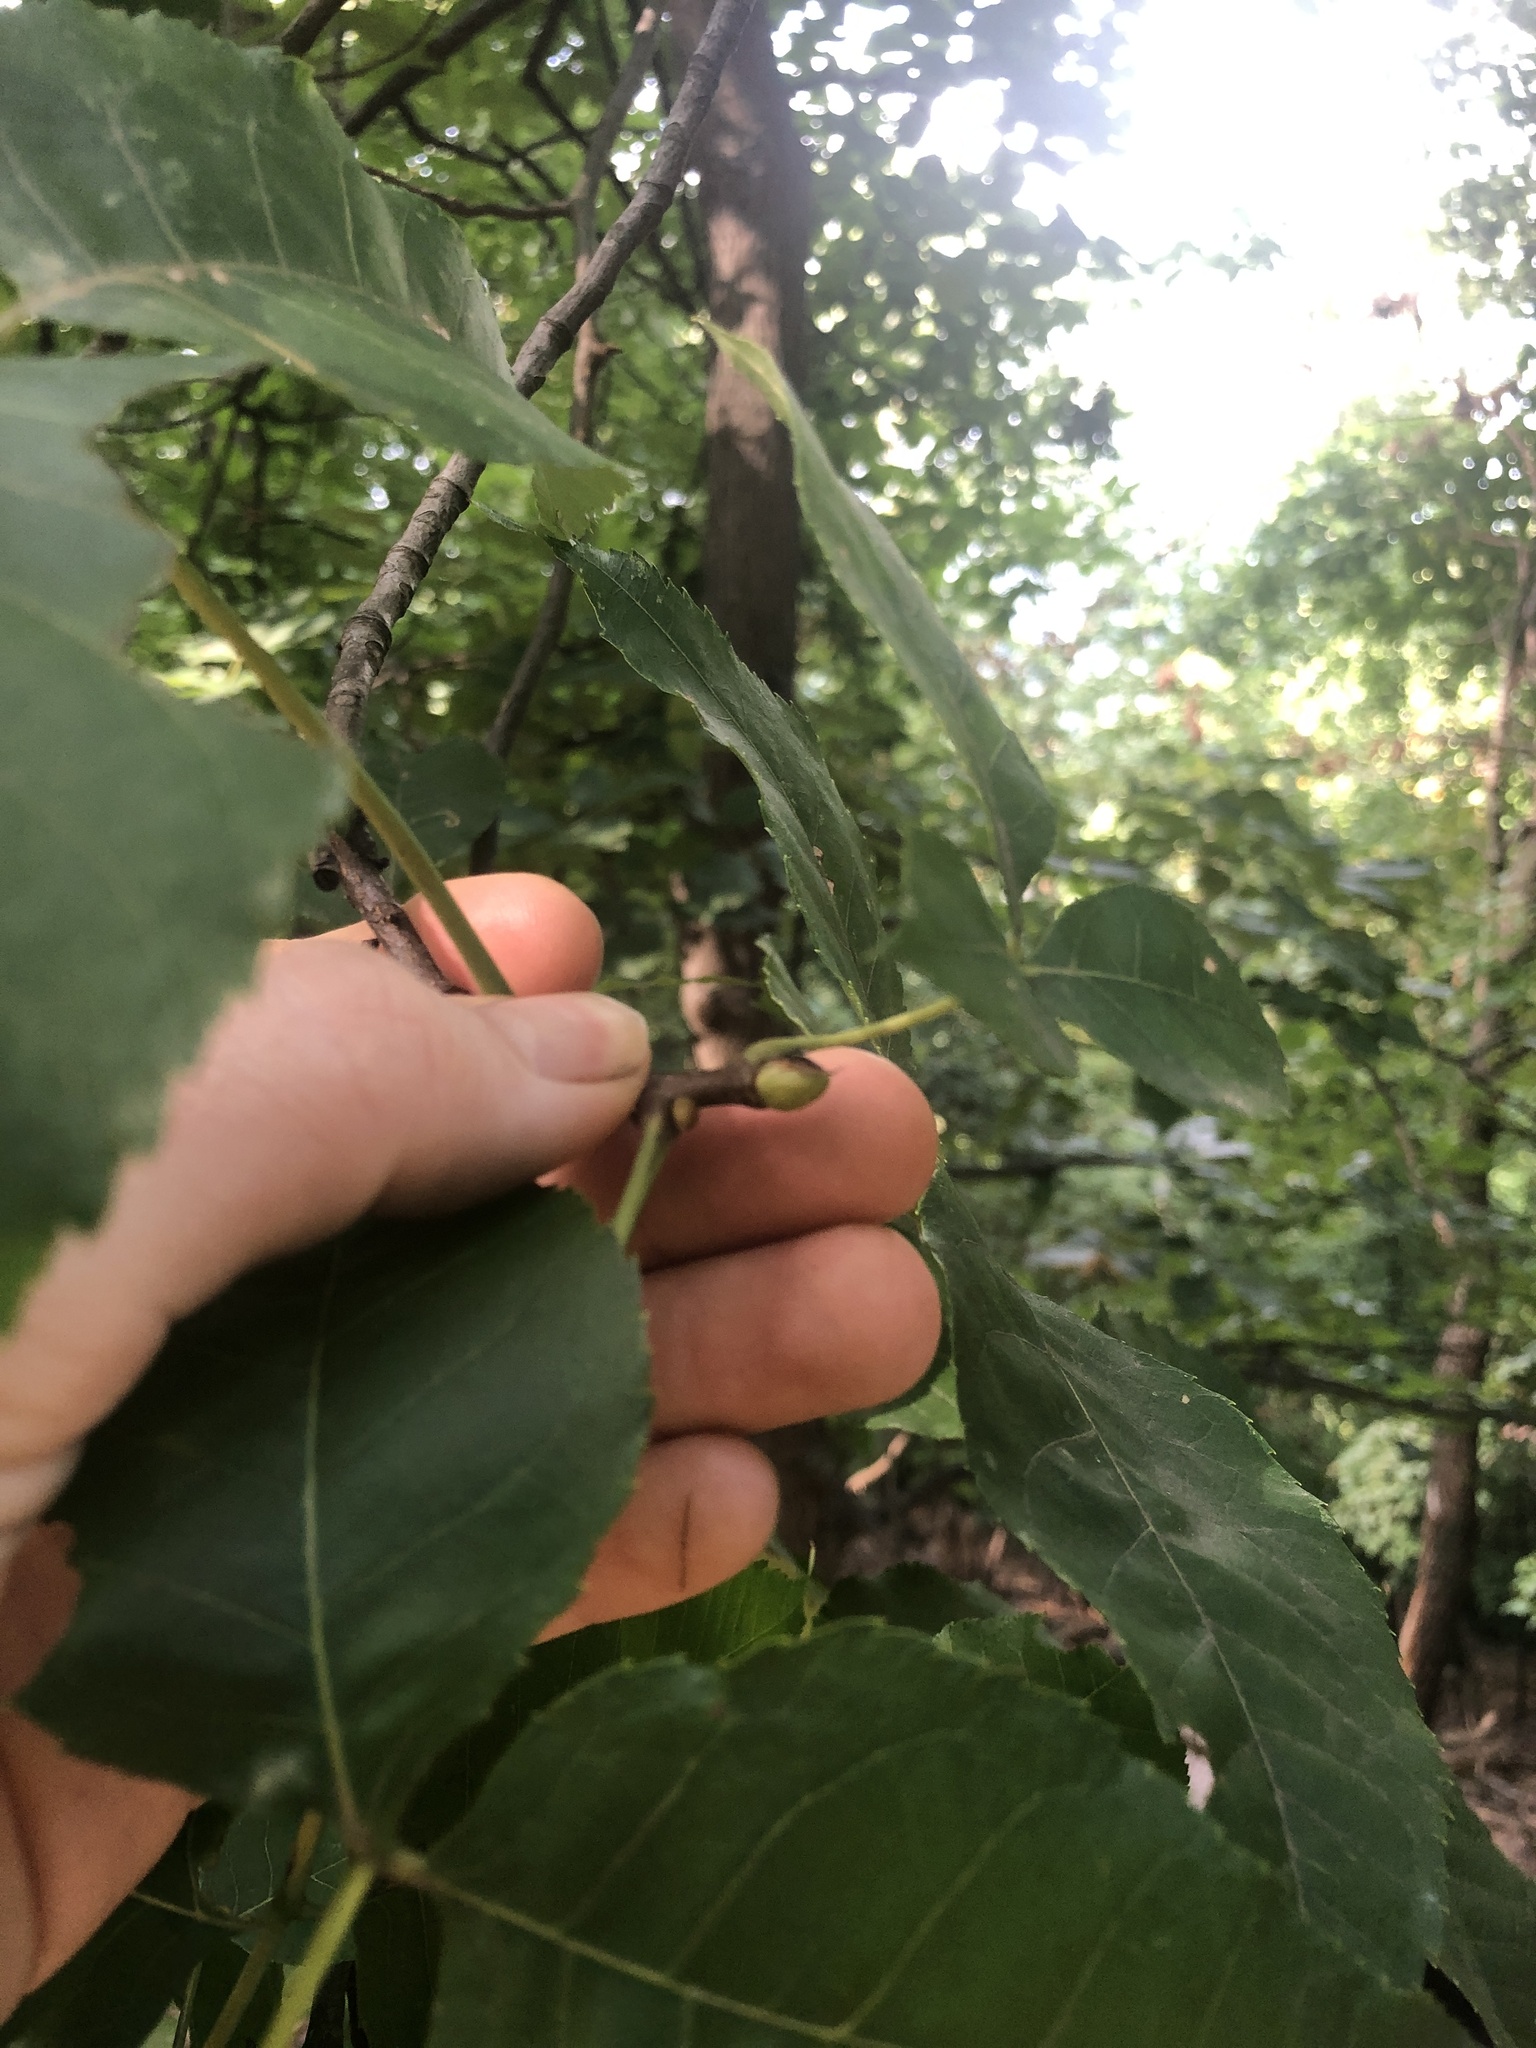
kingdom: Plantae
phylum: Tracheophyta
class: Magnoliopsida
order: Fagales
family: Juglandaceae
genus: Carya
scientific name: Carya glabra
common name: Pignut hickory
